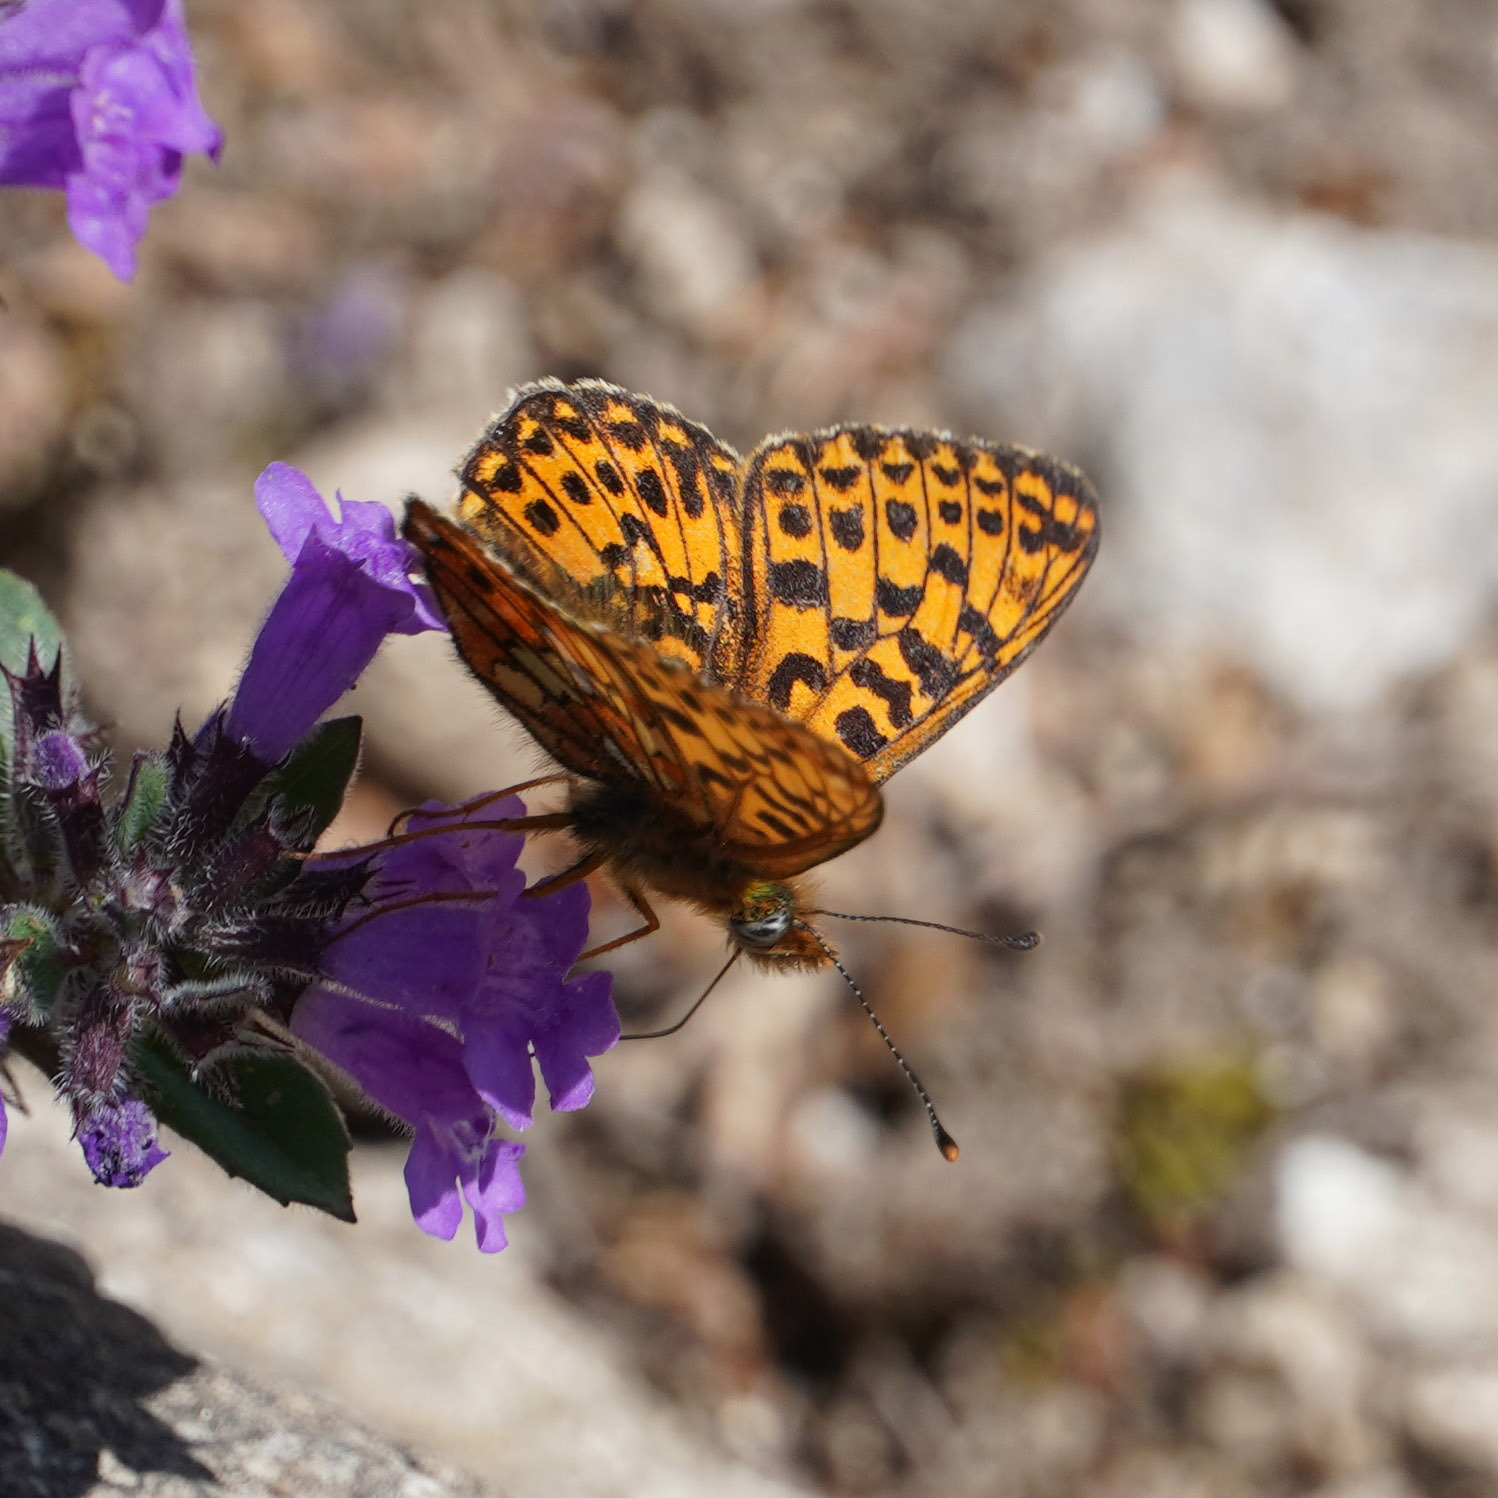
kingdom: Animalia
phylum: Arthropoda
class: Insecta
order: Lepidoptera
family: Nymphalidae
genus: Clossiana
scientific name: Clossiana euphrosyne
